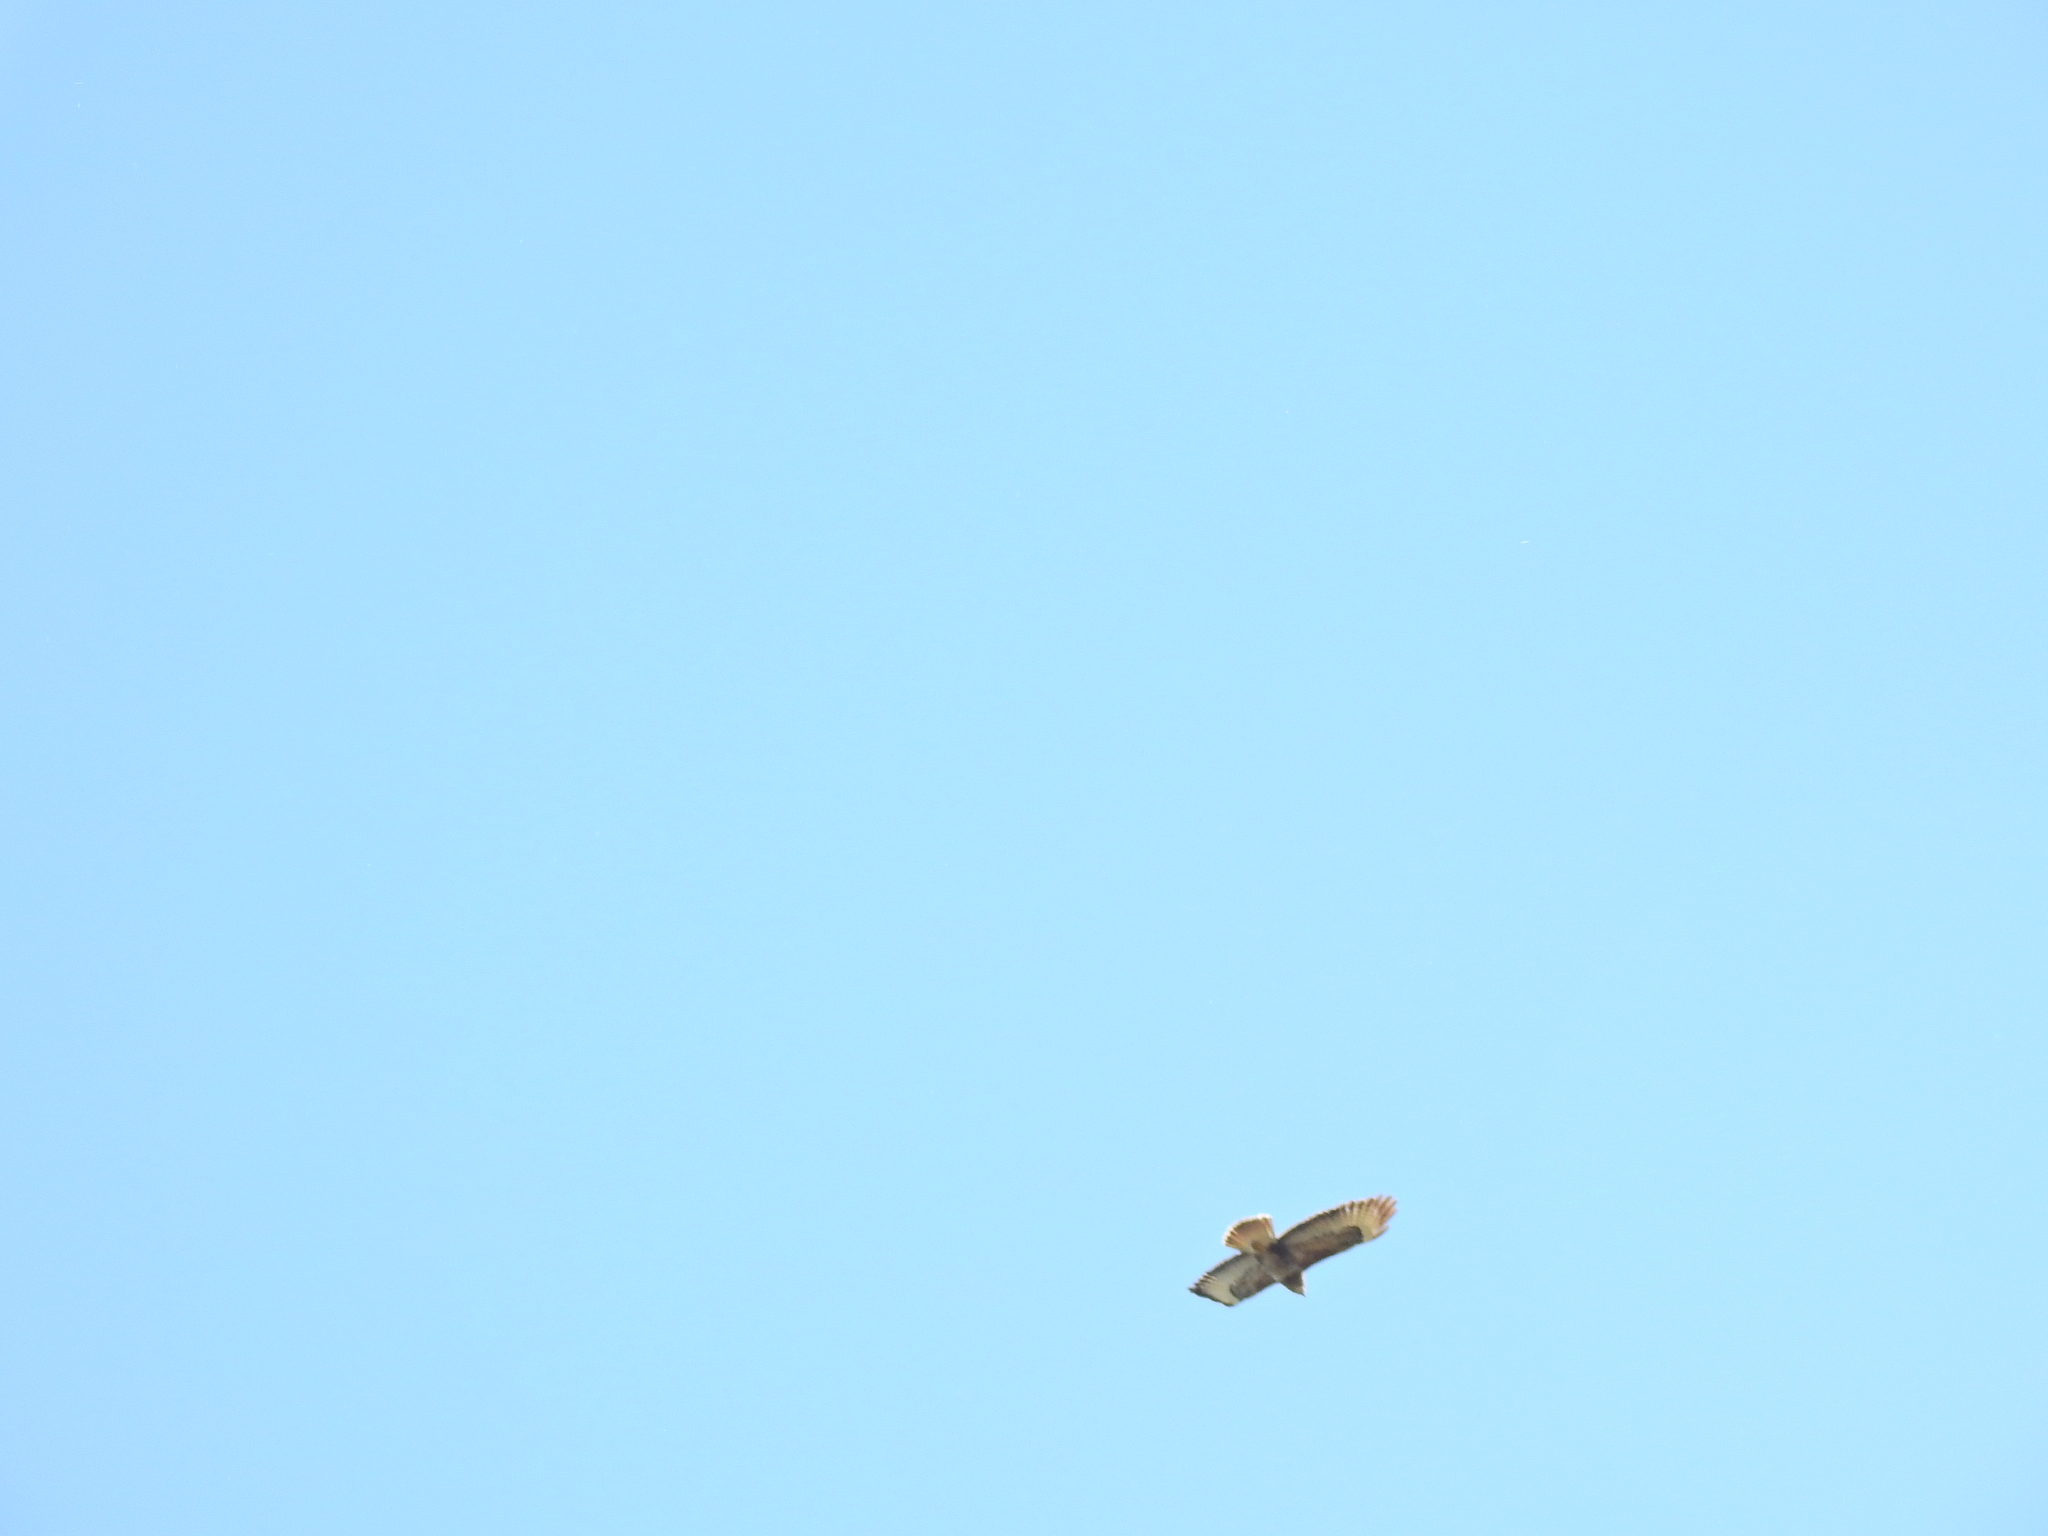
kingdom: Animalia
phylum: Chordata
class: Aves
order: Accipitriformes
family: Accipitridae
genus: Buteo
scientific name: Buteo buteo
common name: Common buzzard
